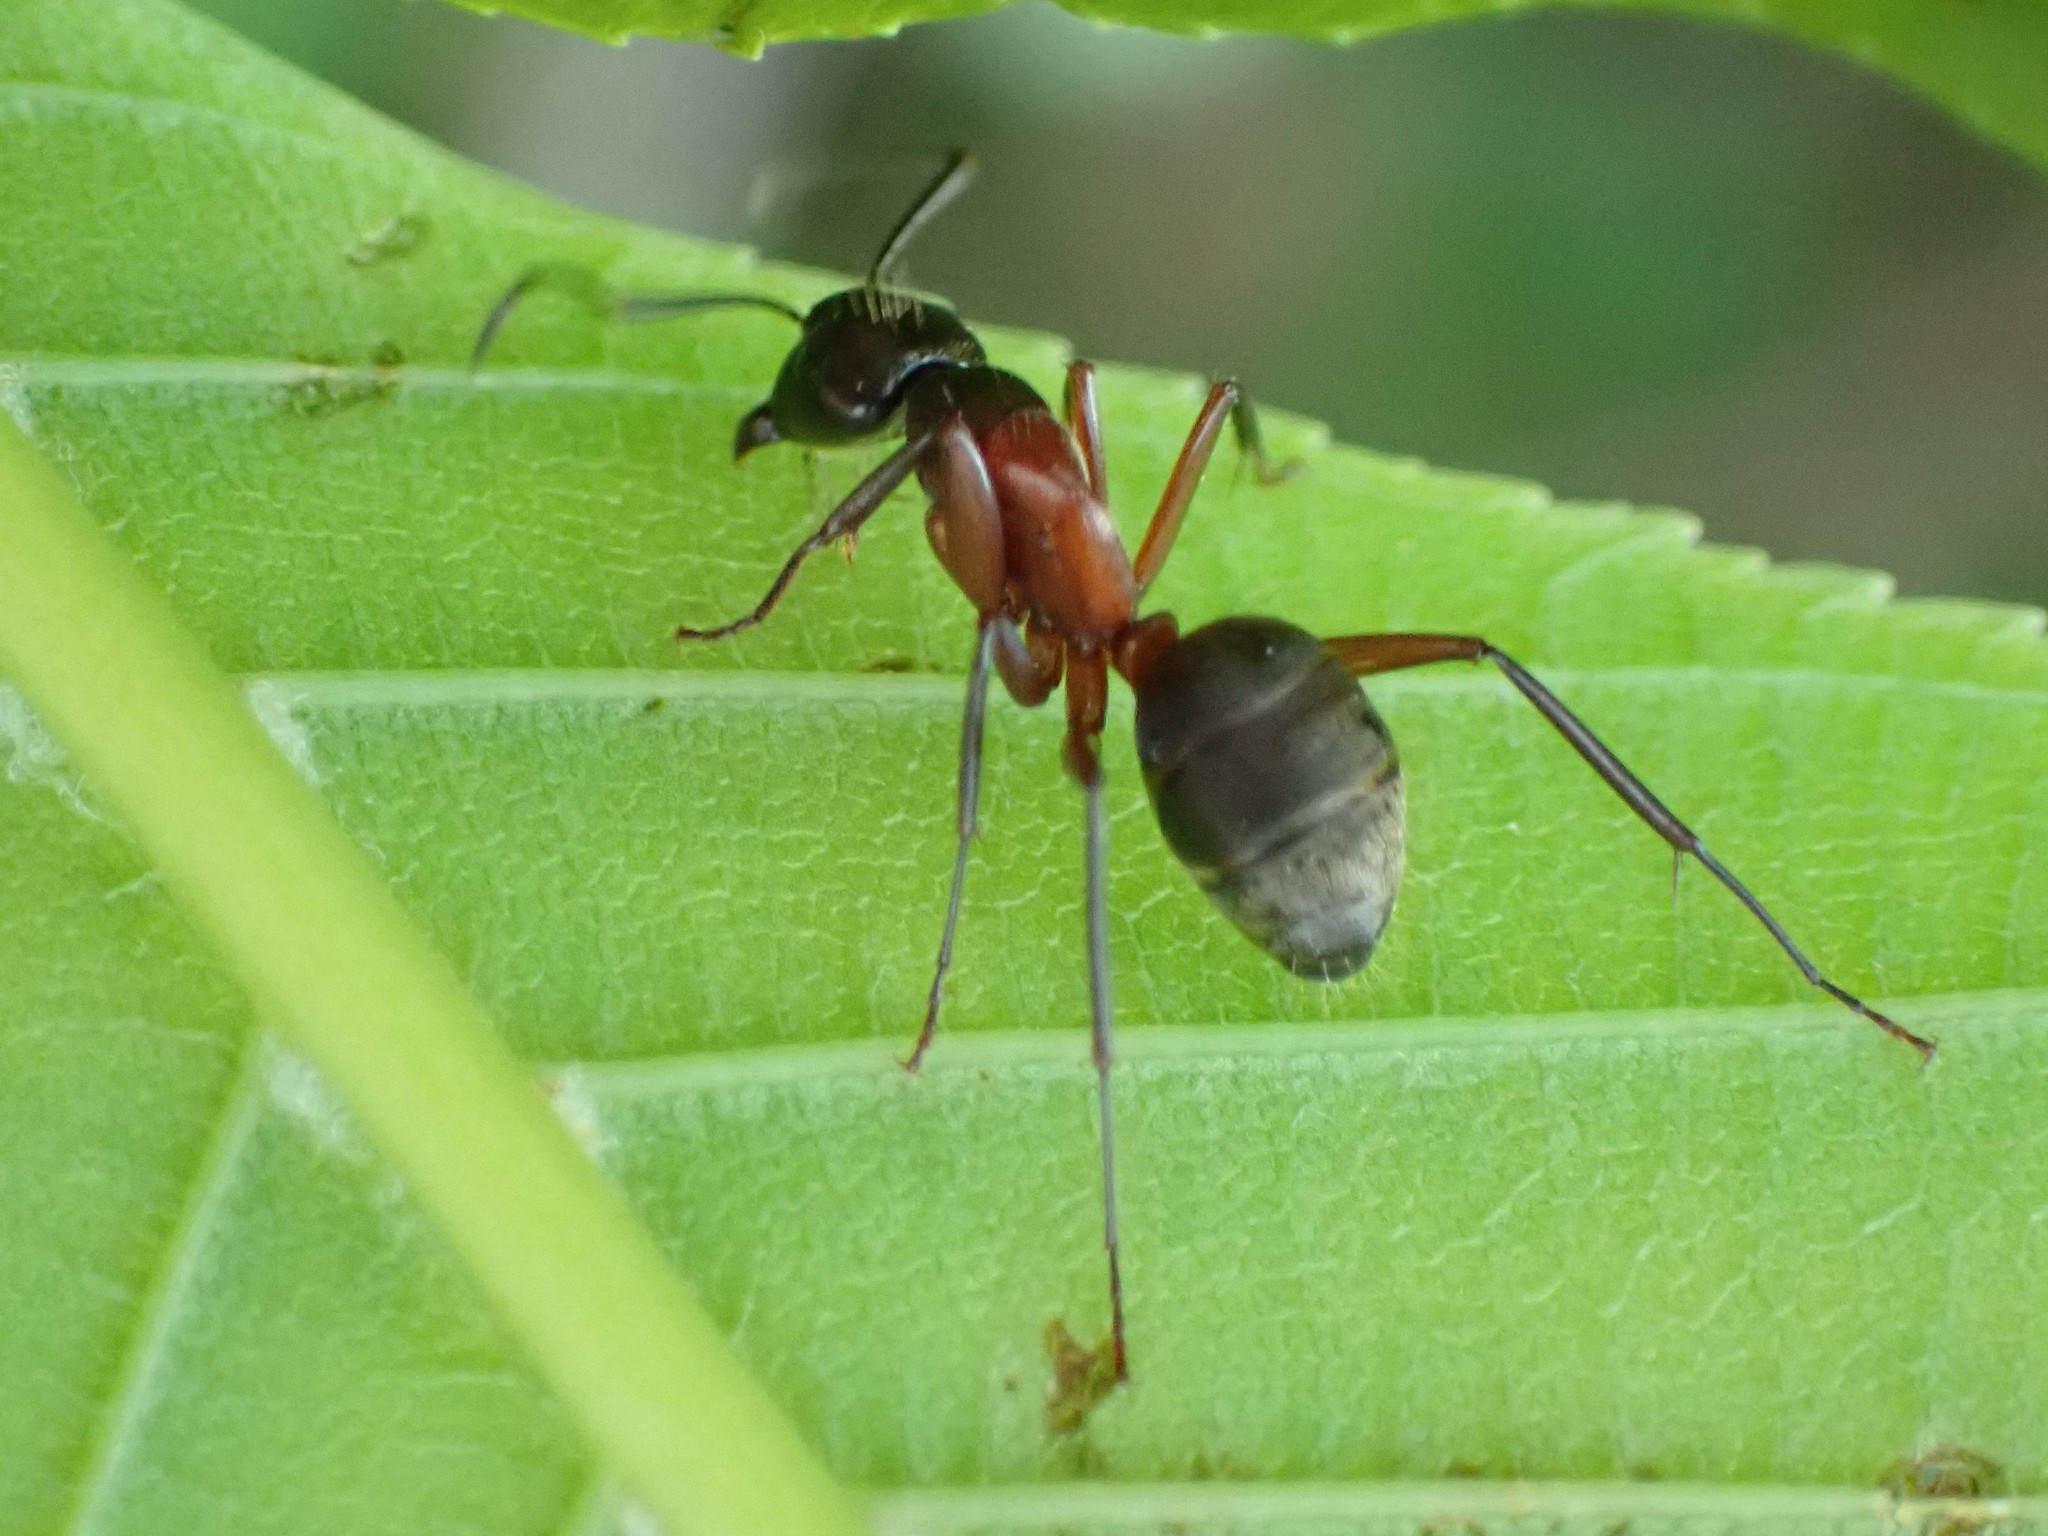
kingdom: Animalia
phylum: Arthropoda
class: Insecta
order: Hymenoptera
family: Formicidae
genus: Camponotus
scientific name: Camponotus chromaiodes
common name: Red carpenter ant
